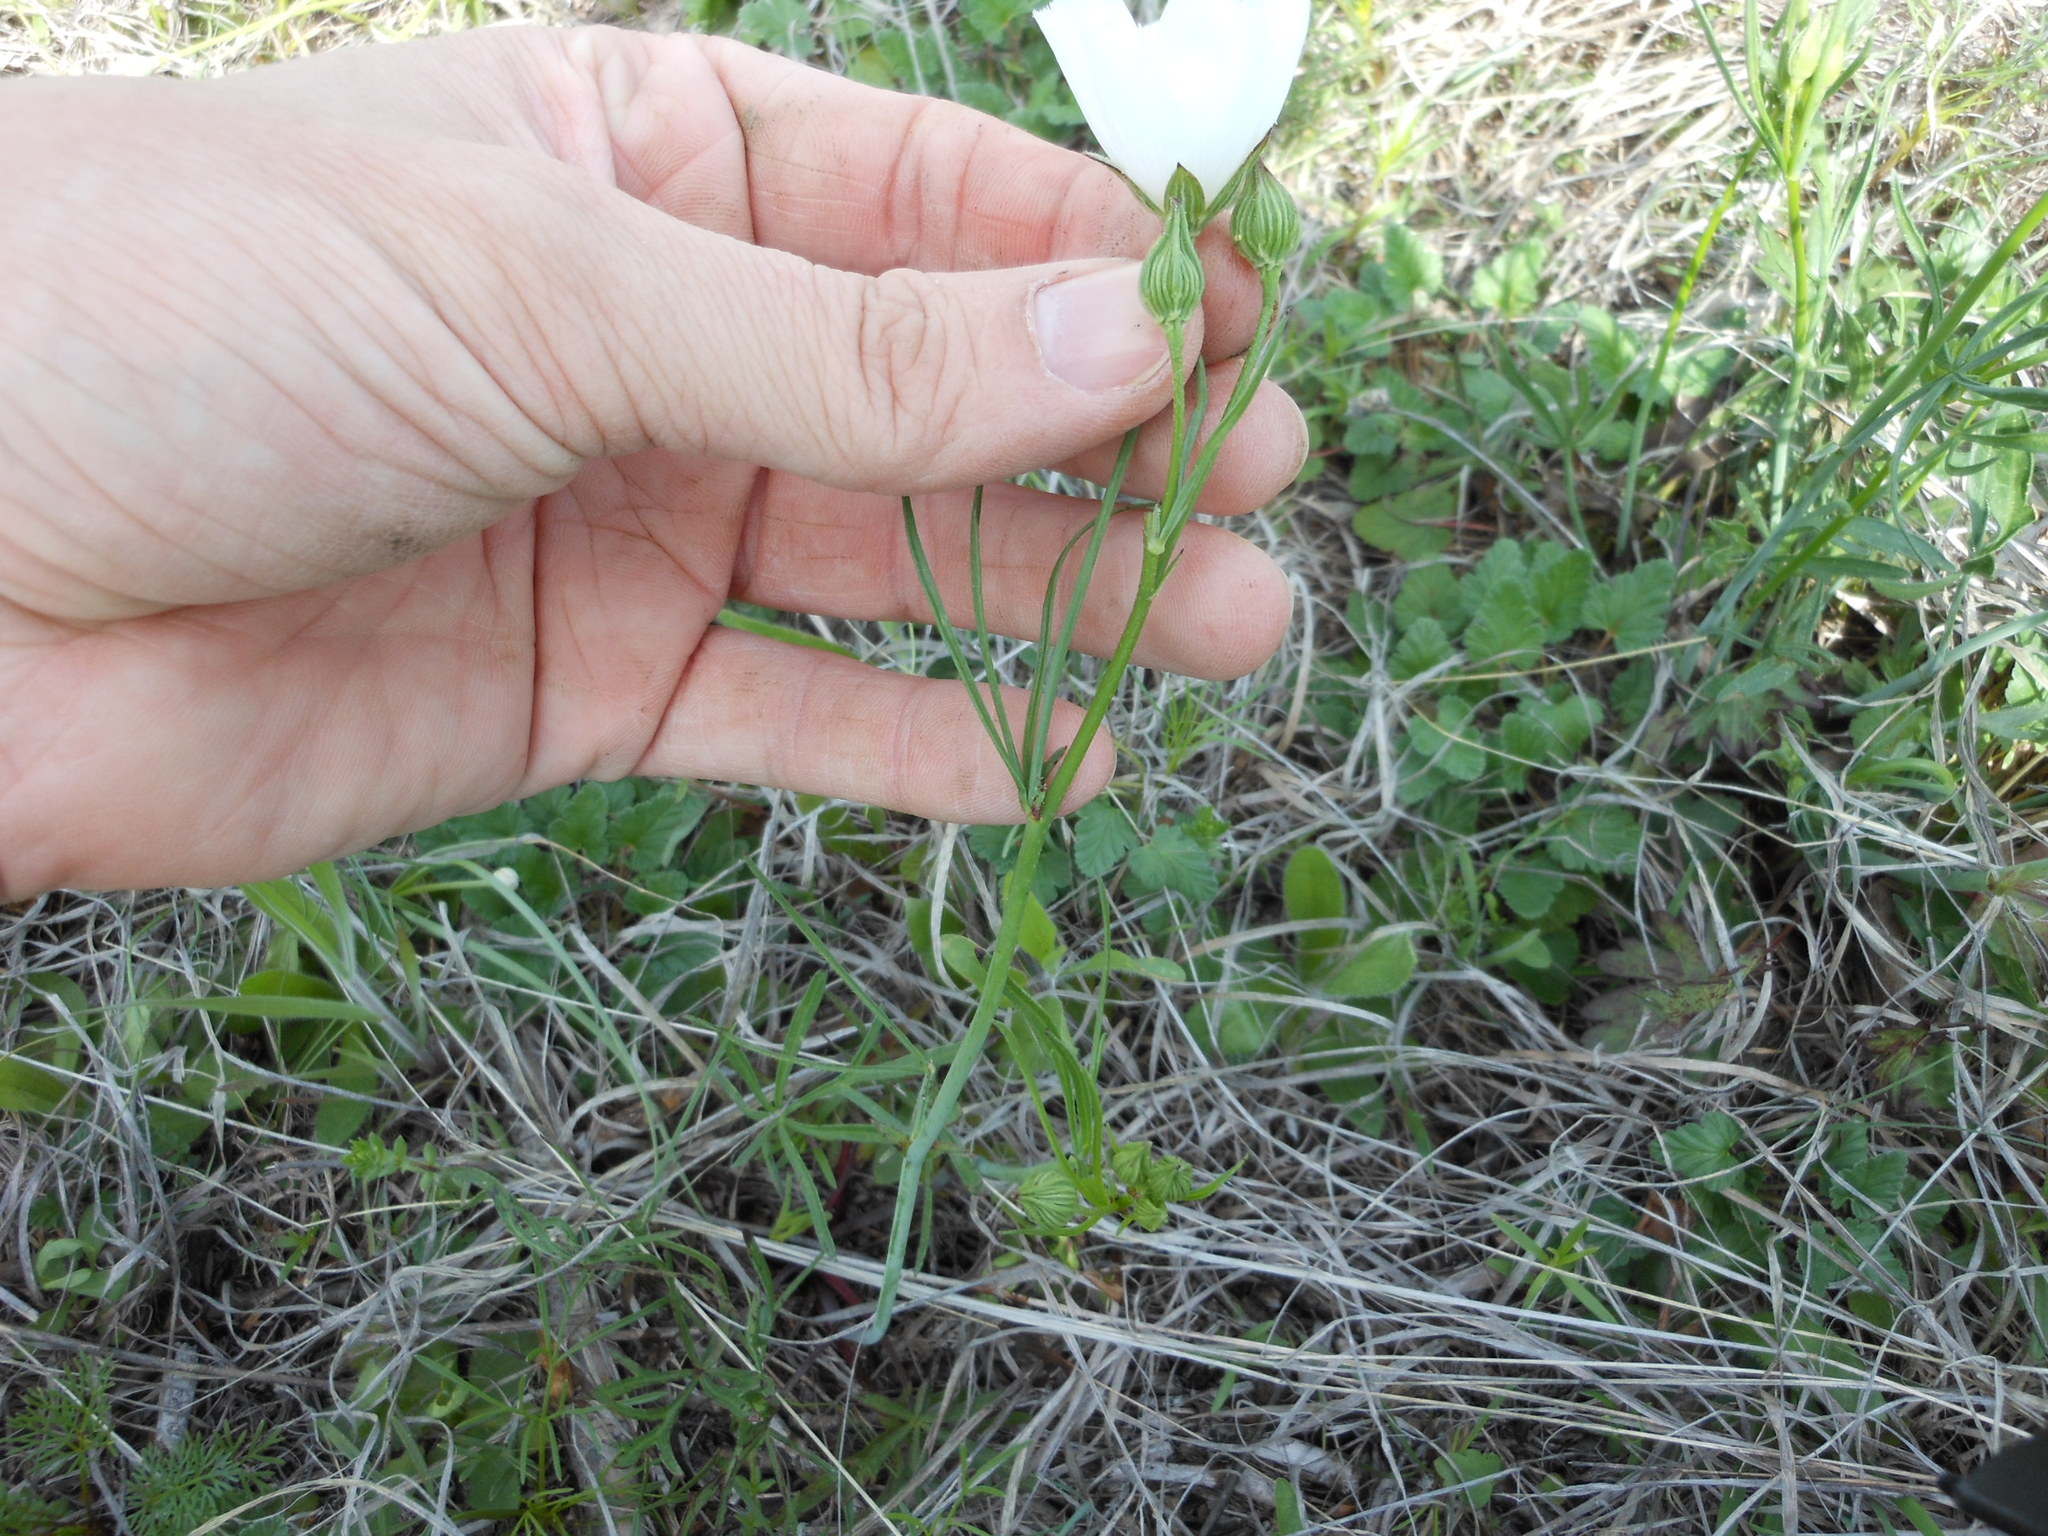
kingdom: Plantae
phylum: Tracheophyta
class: Magnoliopsida
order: Malvales
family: Malvaceae
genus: Callirhoe
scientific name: Callirhoe pedata
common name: Finger poppy-mallow
